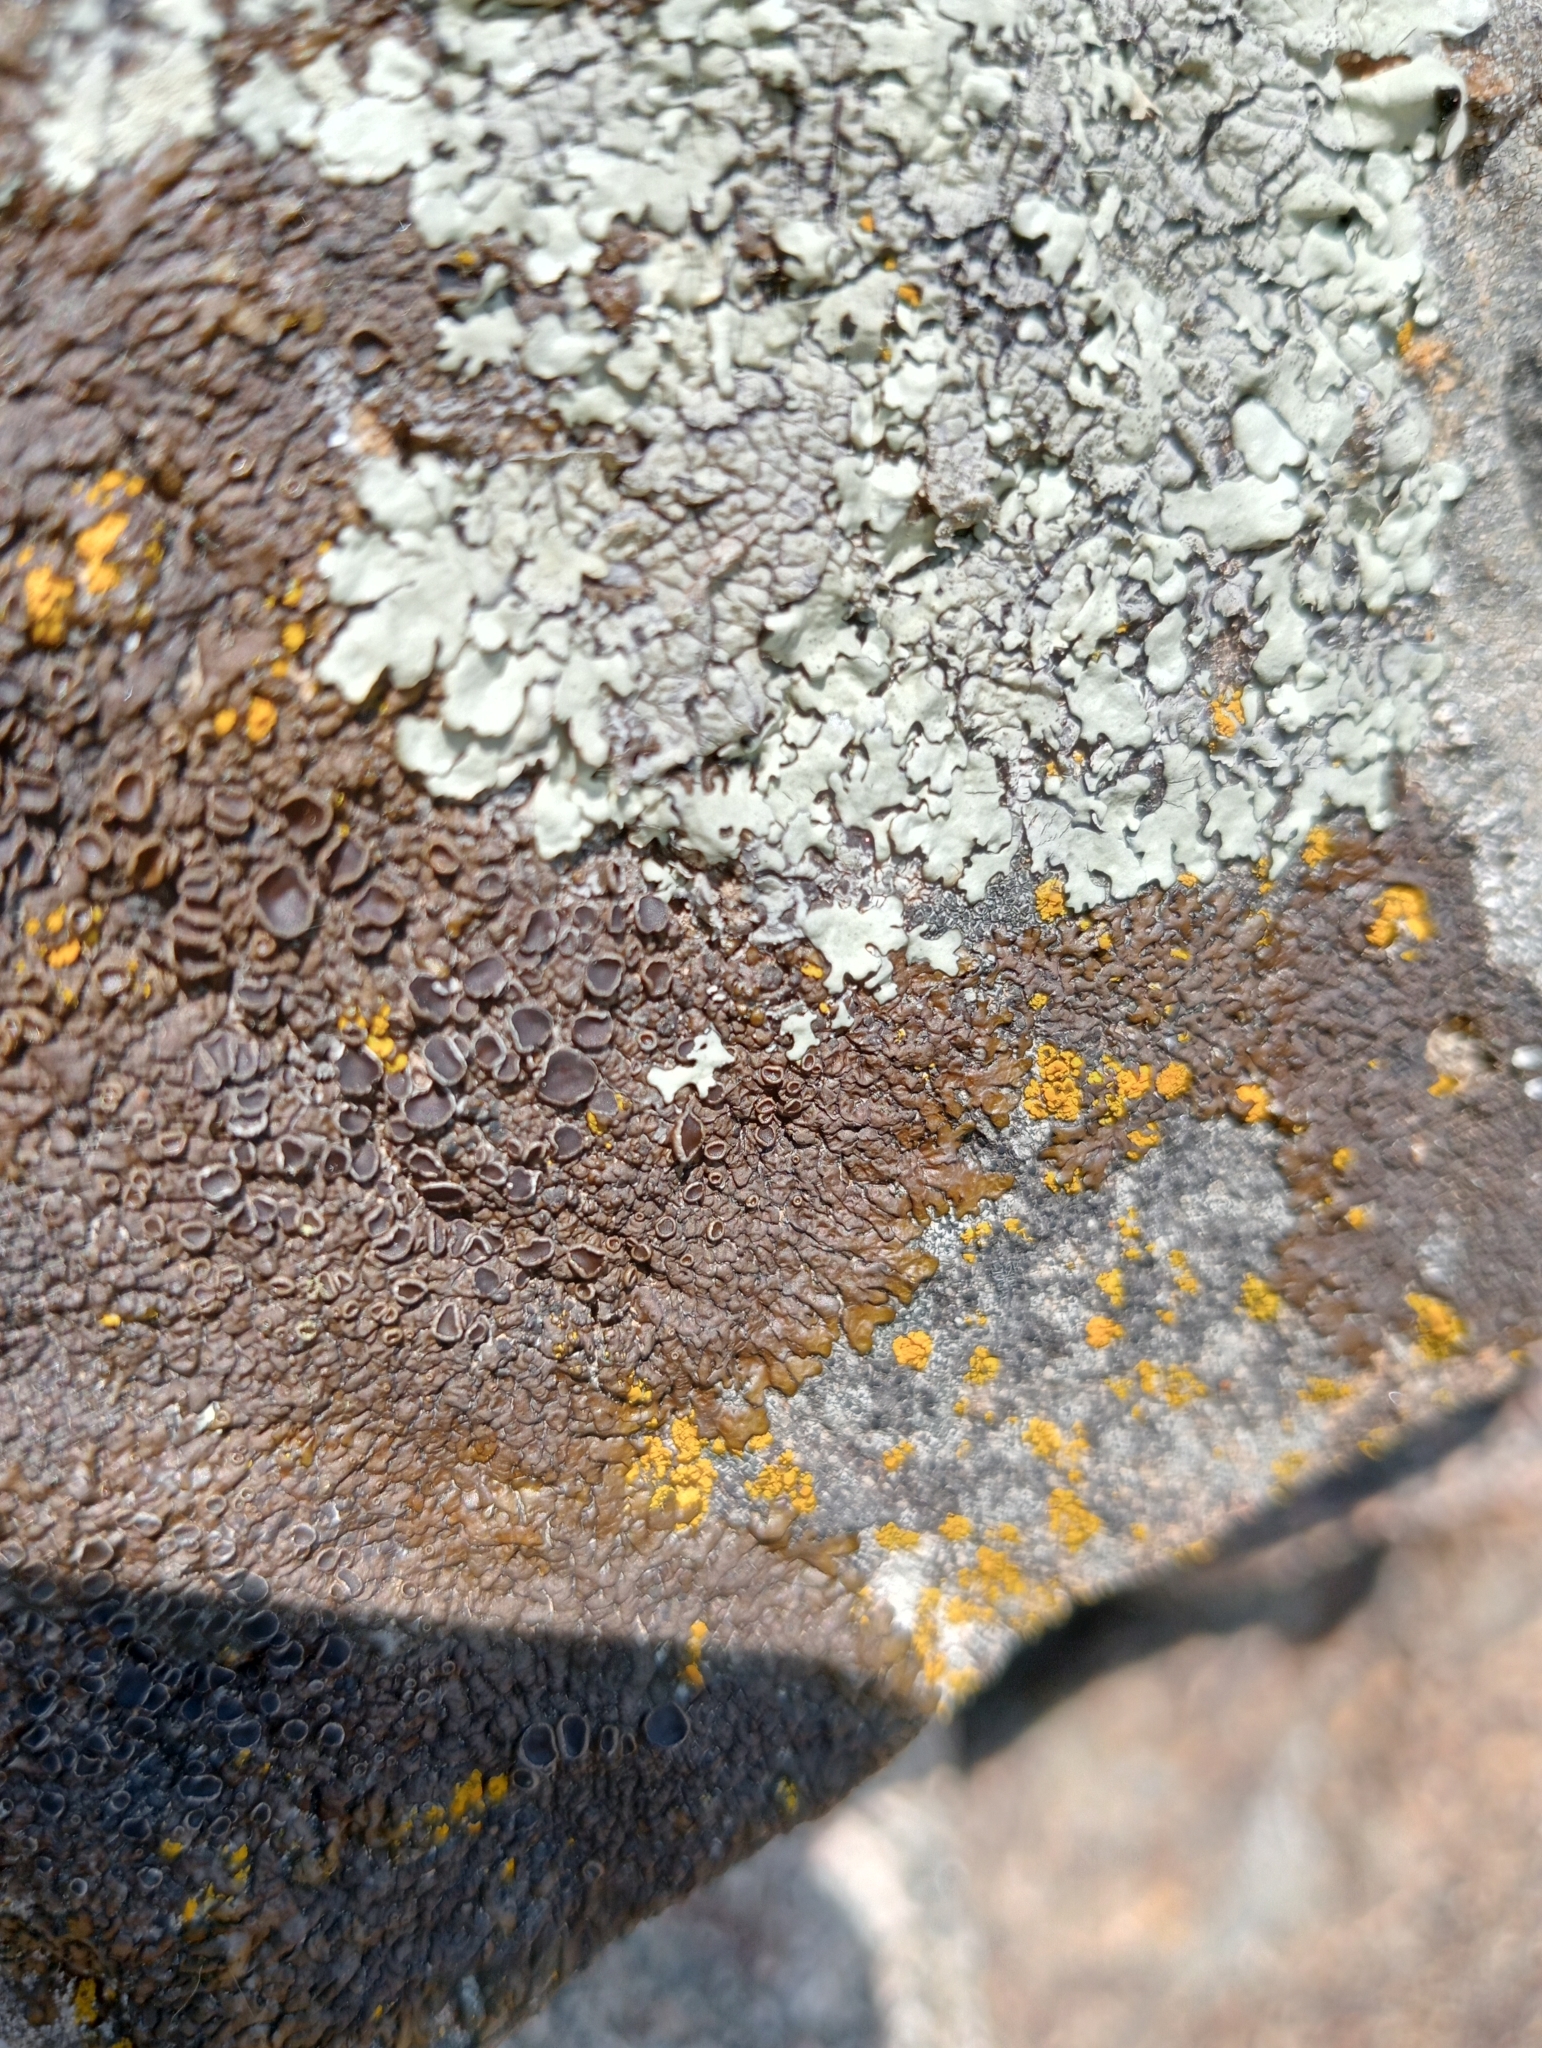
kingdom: Fungi
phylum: Ascomycota
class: Lecanoromycetes
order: Lecanorales
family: Parmeliaceae
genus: Xanthoparmelia
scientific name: Xanthoparmelia pulla
